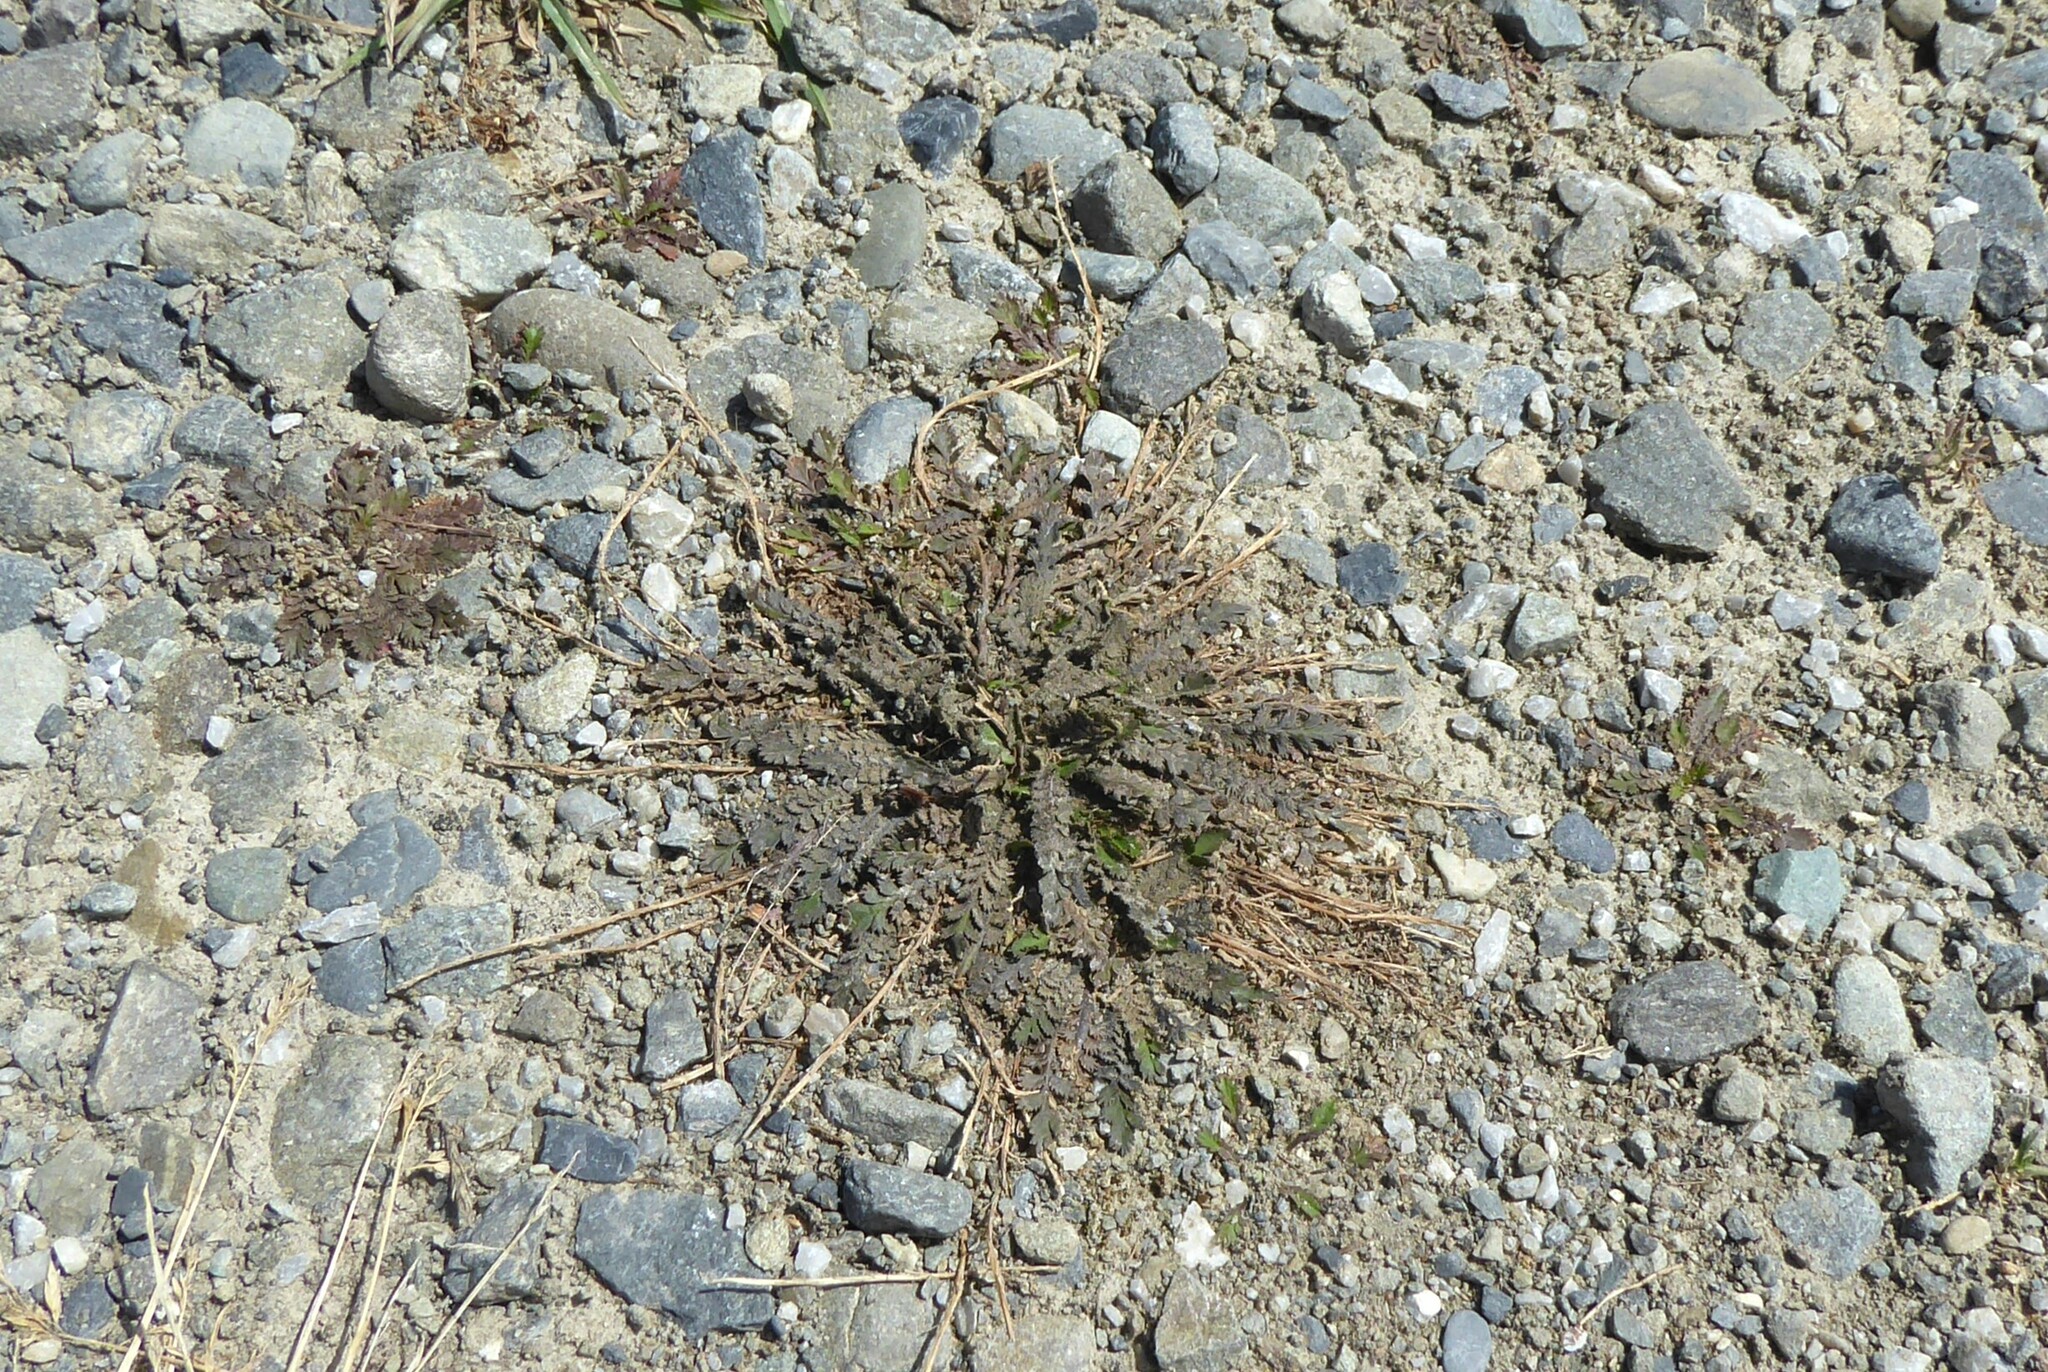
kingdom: Plantae
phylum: Tracheophyta
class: Magnoliopsida
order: Brassicales
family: Brassicaceae
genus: Lepidium
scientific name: Lepidium tenuicaule
